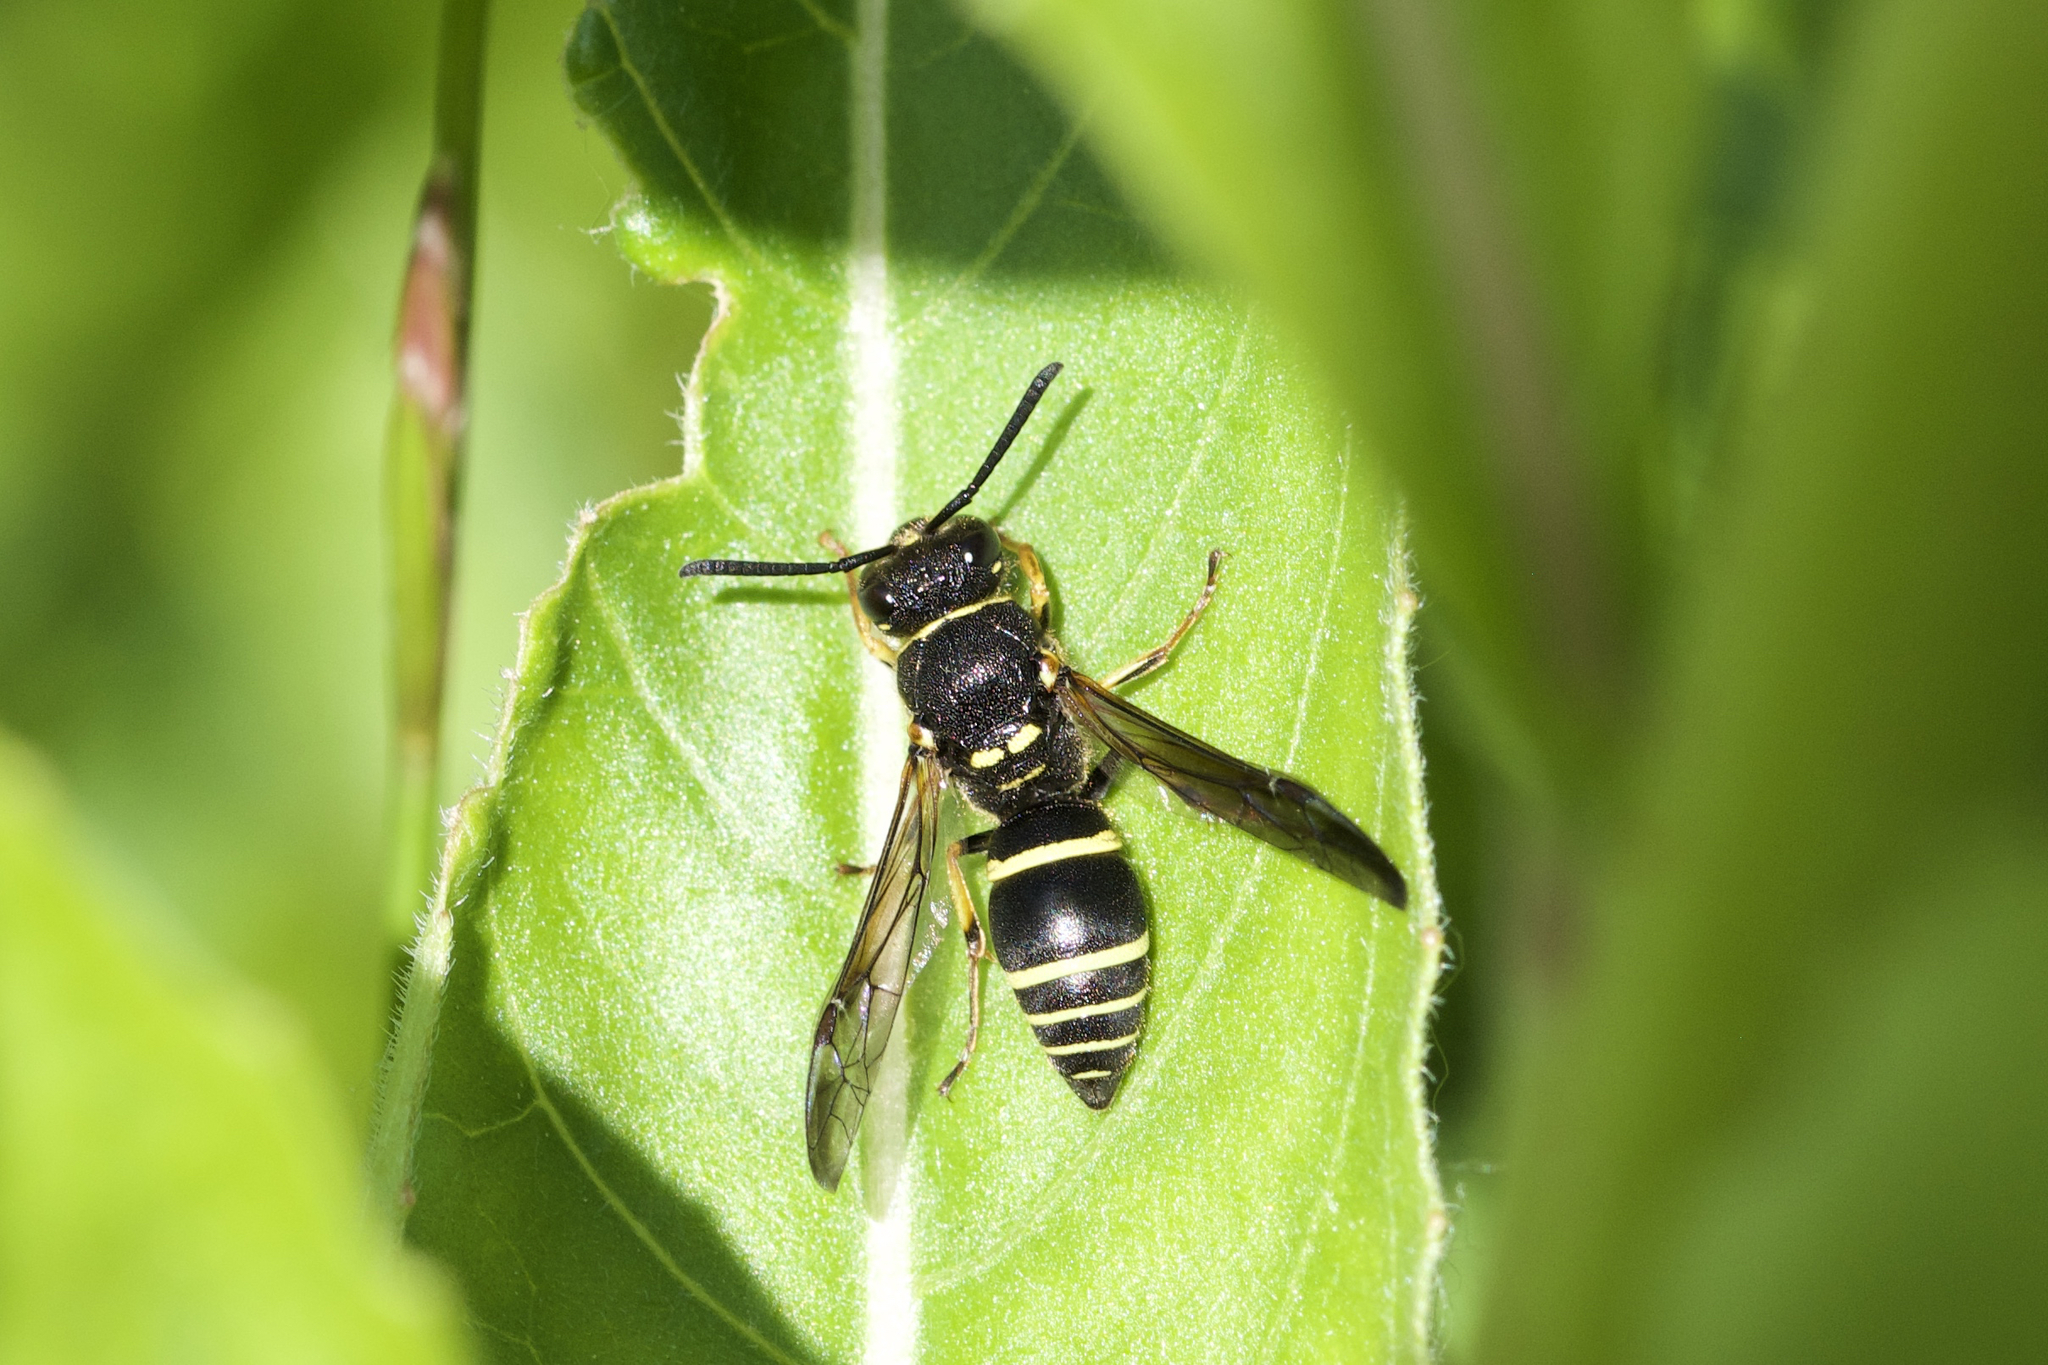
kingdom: Animalia
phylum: Arthropoda
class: Insecta
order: Hymenoptera
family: Vespidae
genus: Ancistrocerus
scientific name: Ancistrocerus albophaleratus
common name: White-banded potter wasp
